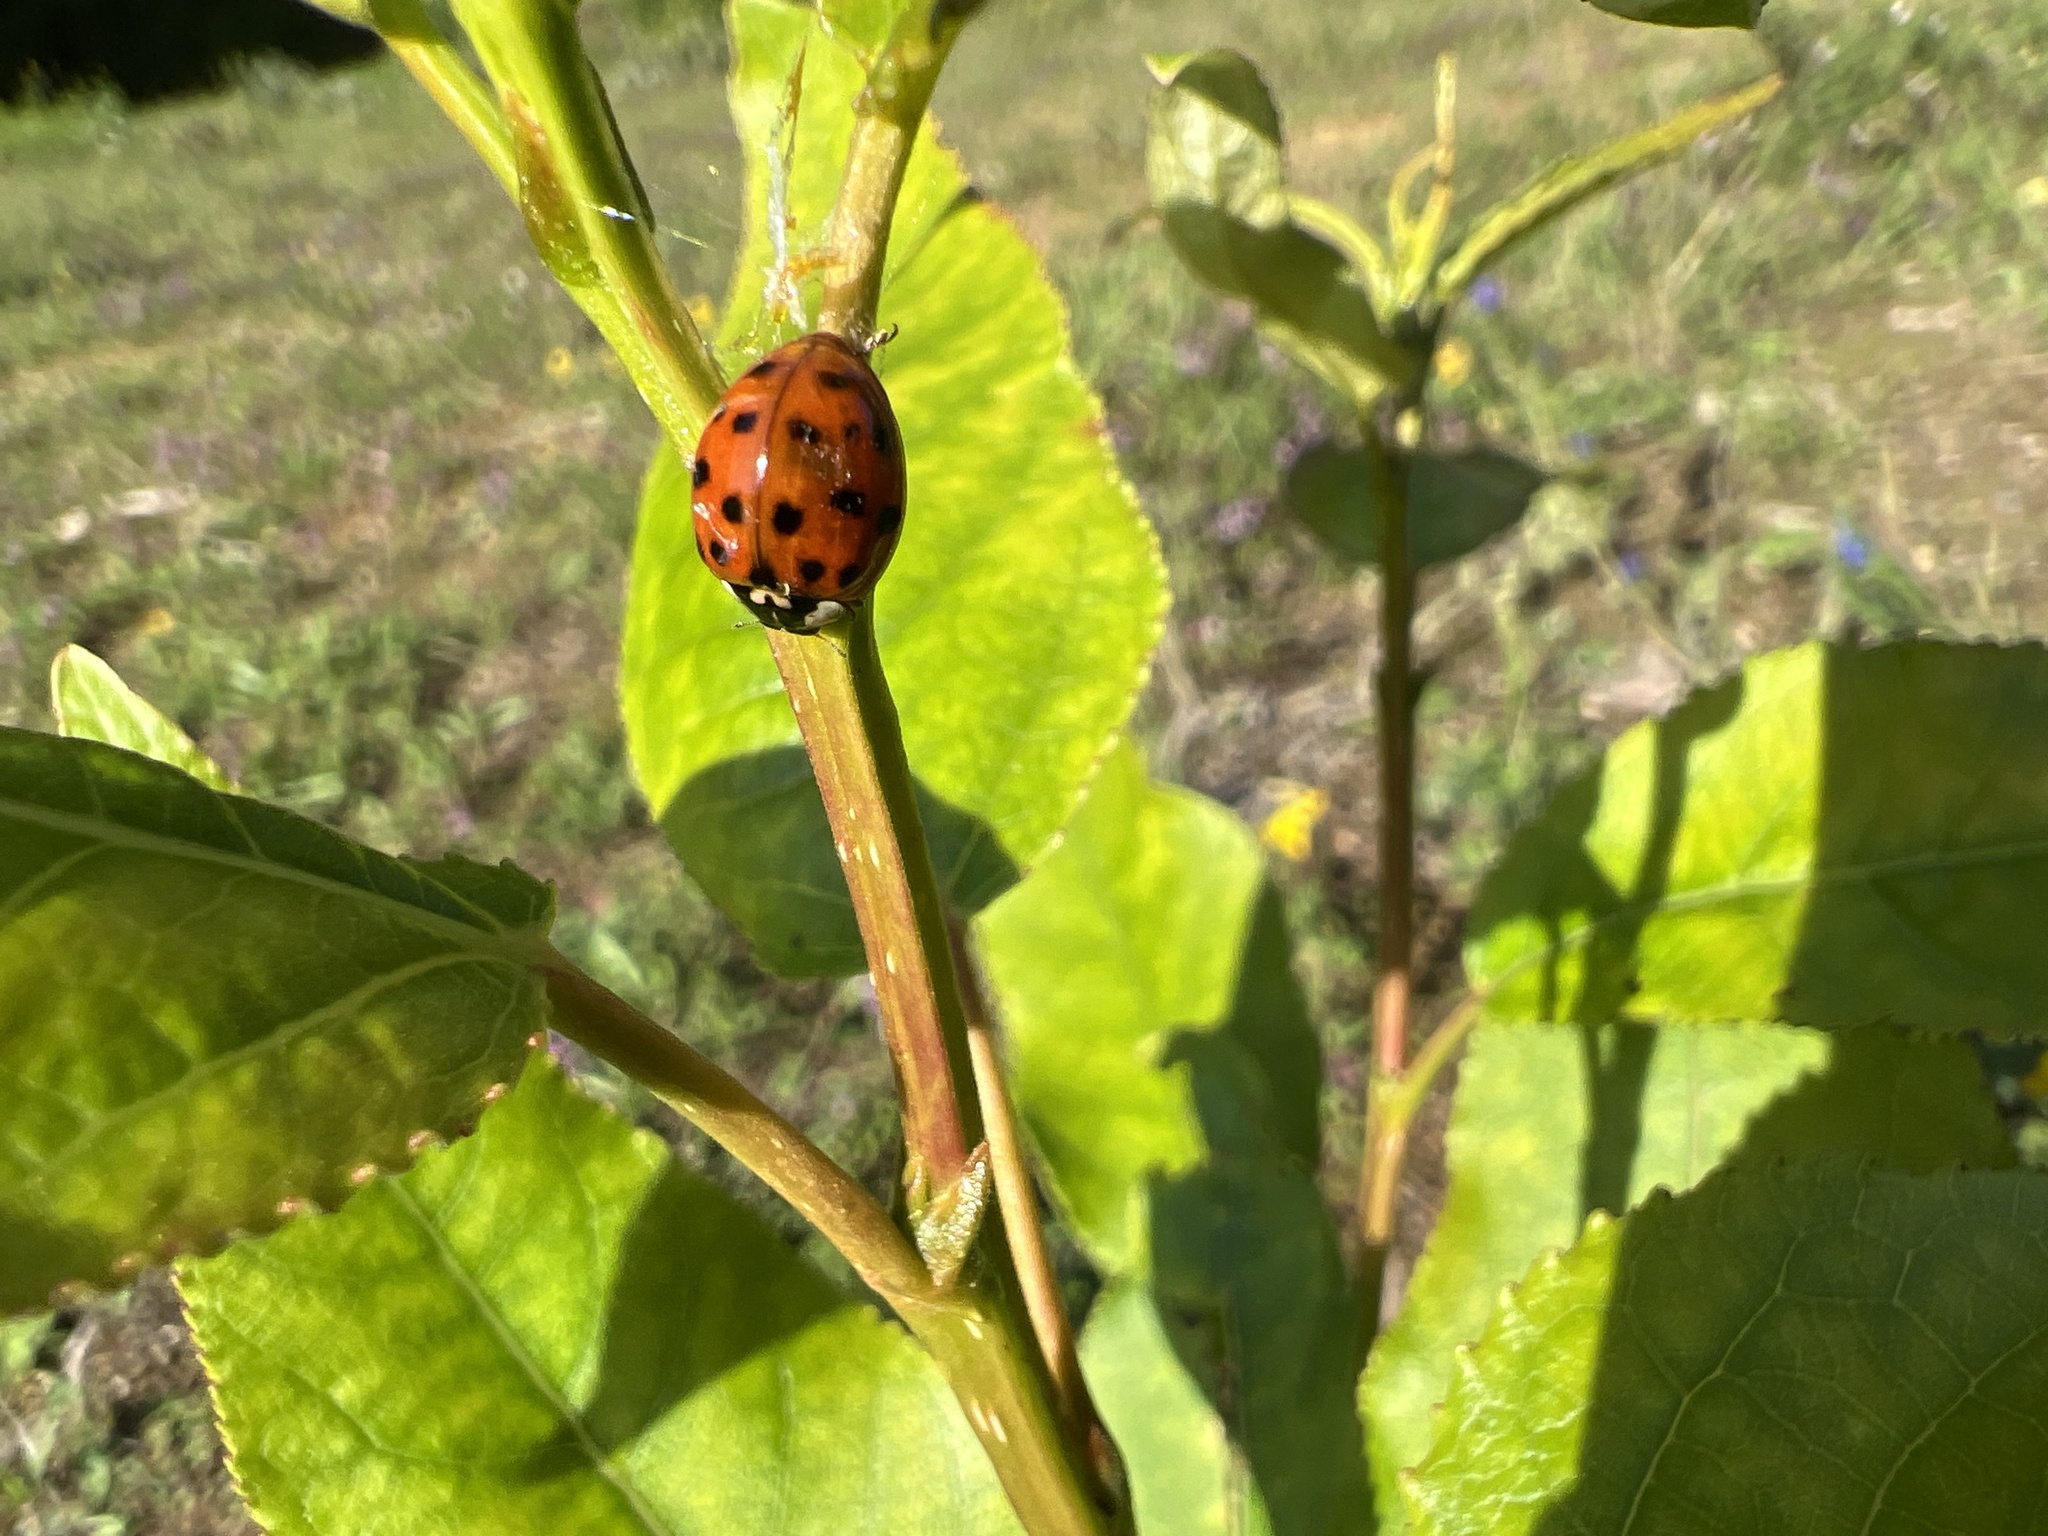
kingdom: Animalia
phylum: Arthropoda
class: Insecta
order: Coleoptera
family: Coccinellidae
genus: Harmonia
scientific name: Harmonia axyridis
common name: Harlequin ladybird
